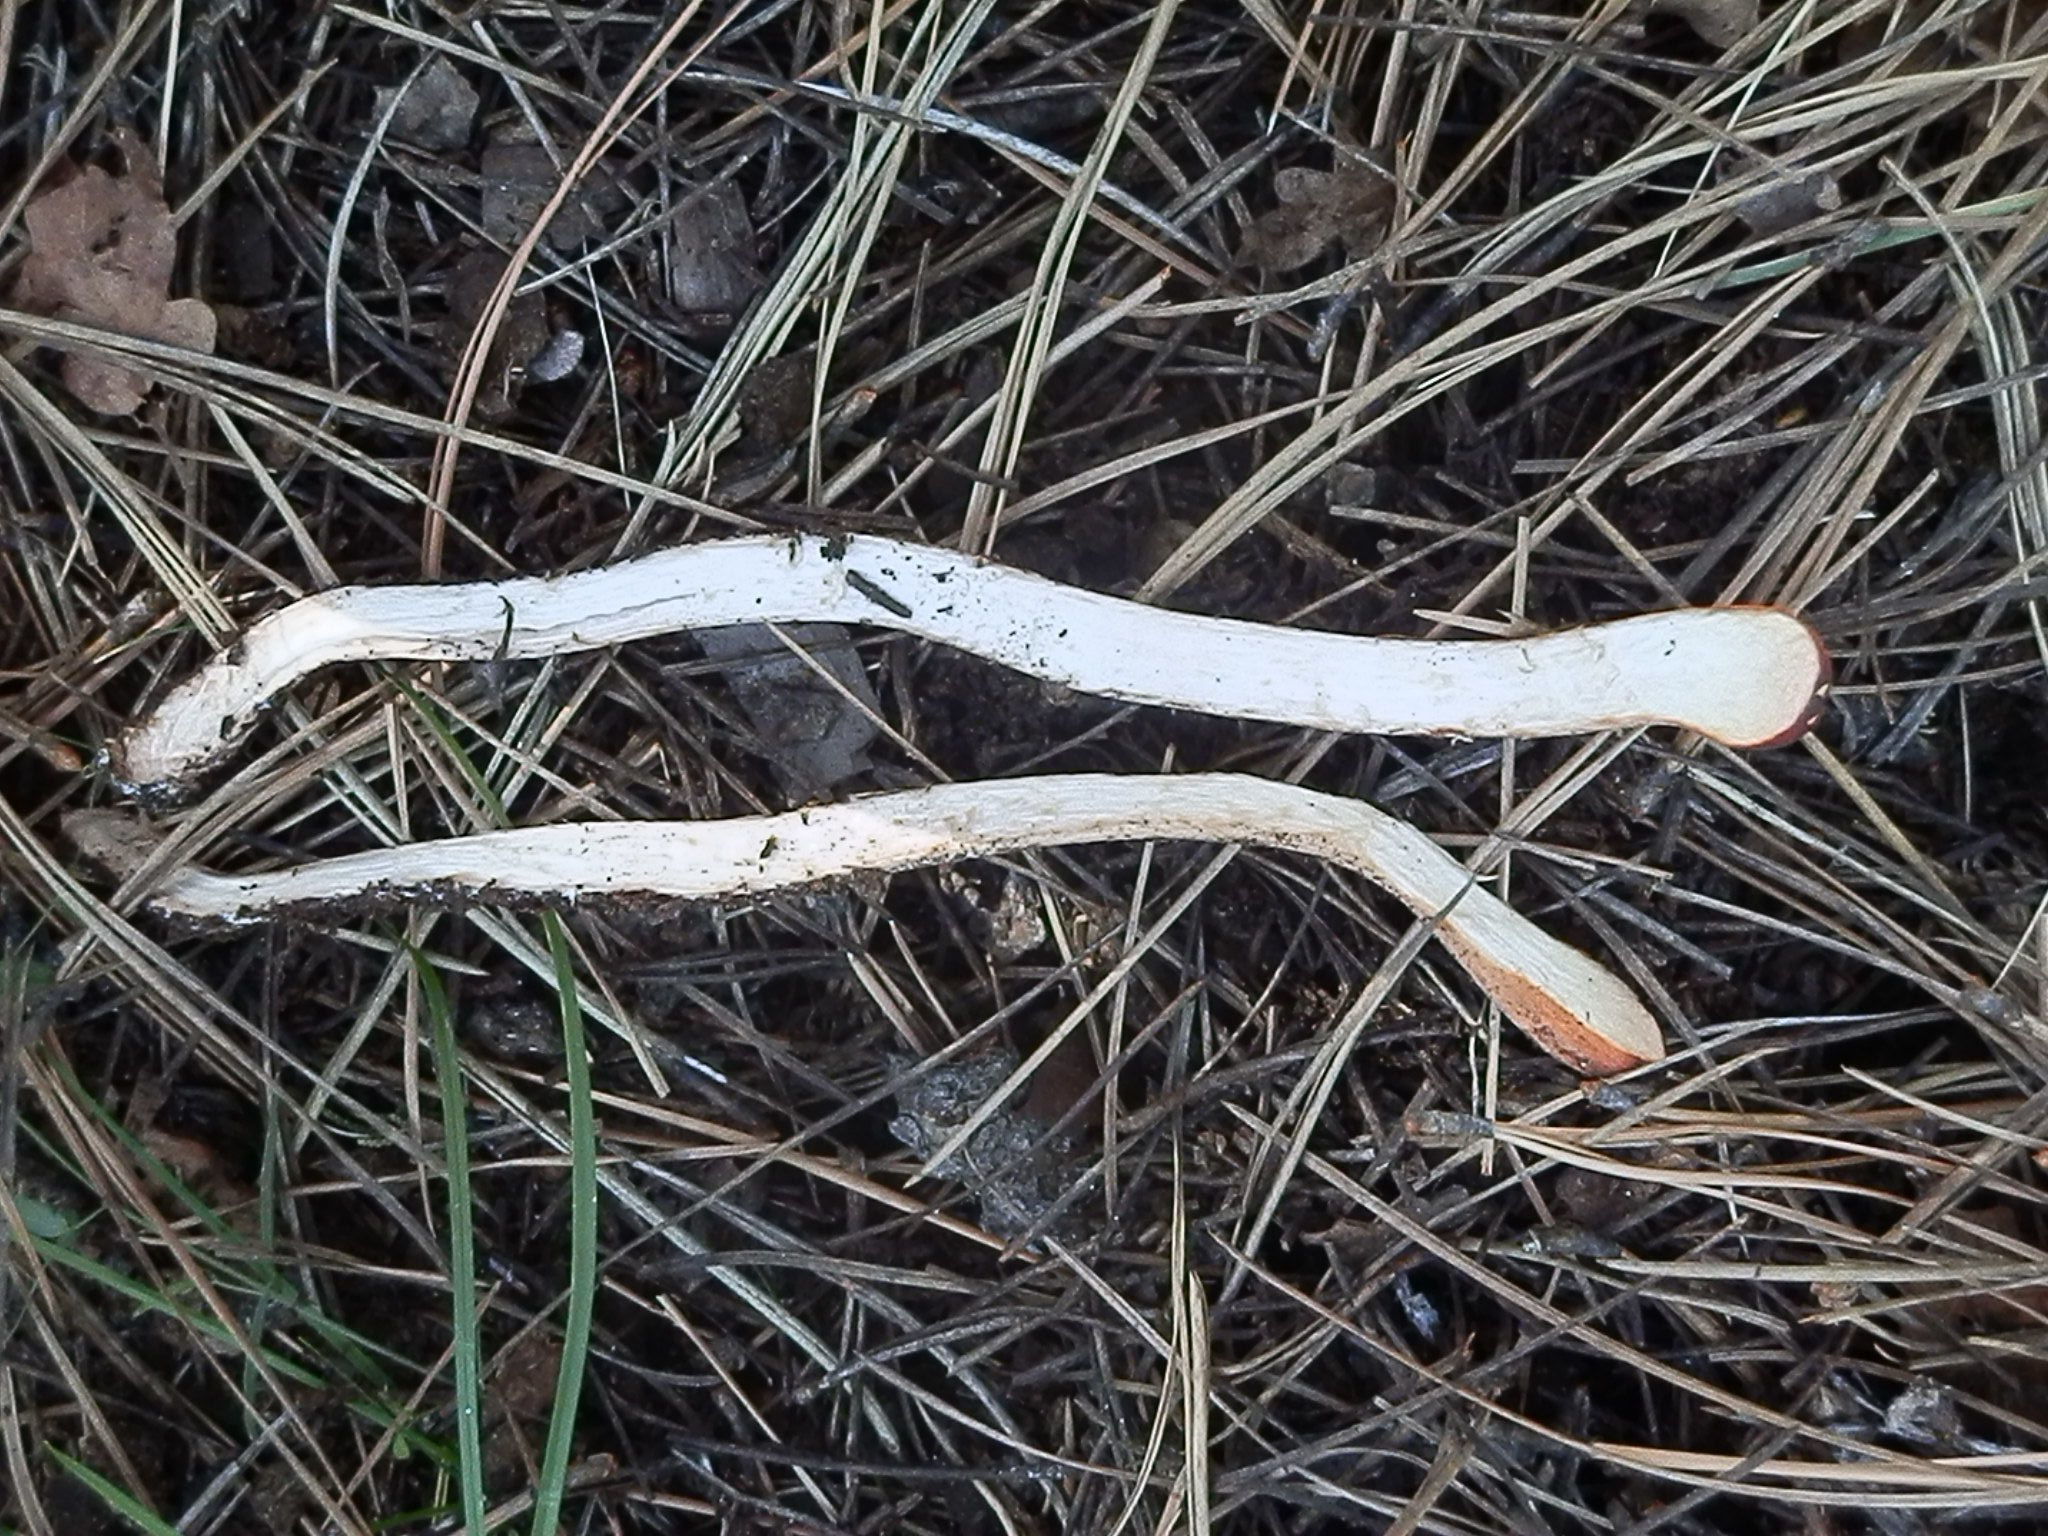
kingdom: Fungi
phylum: Basidiomycota
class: Agaricomycetes
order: Gomphales
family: Clavariadelphaceae
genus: Clavariadelphus
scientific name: Clavariadelphus truncatus
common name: Truncated club
